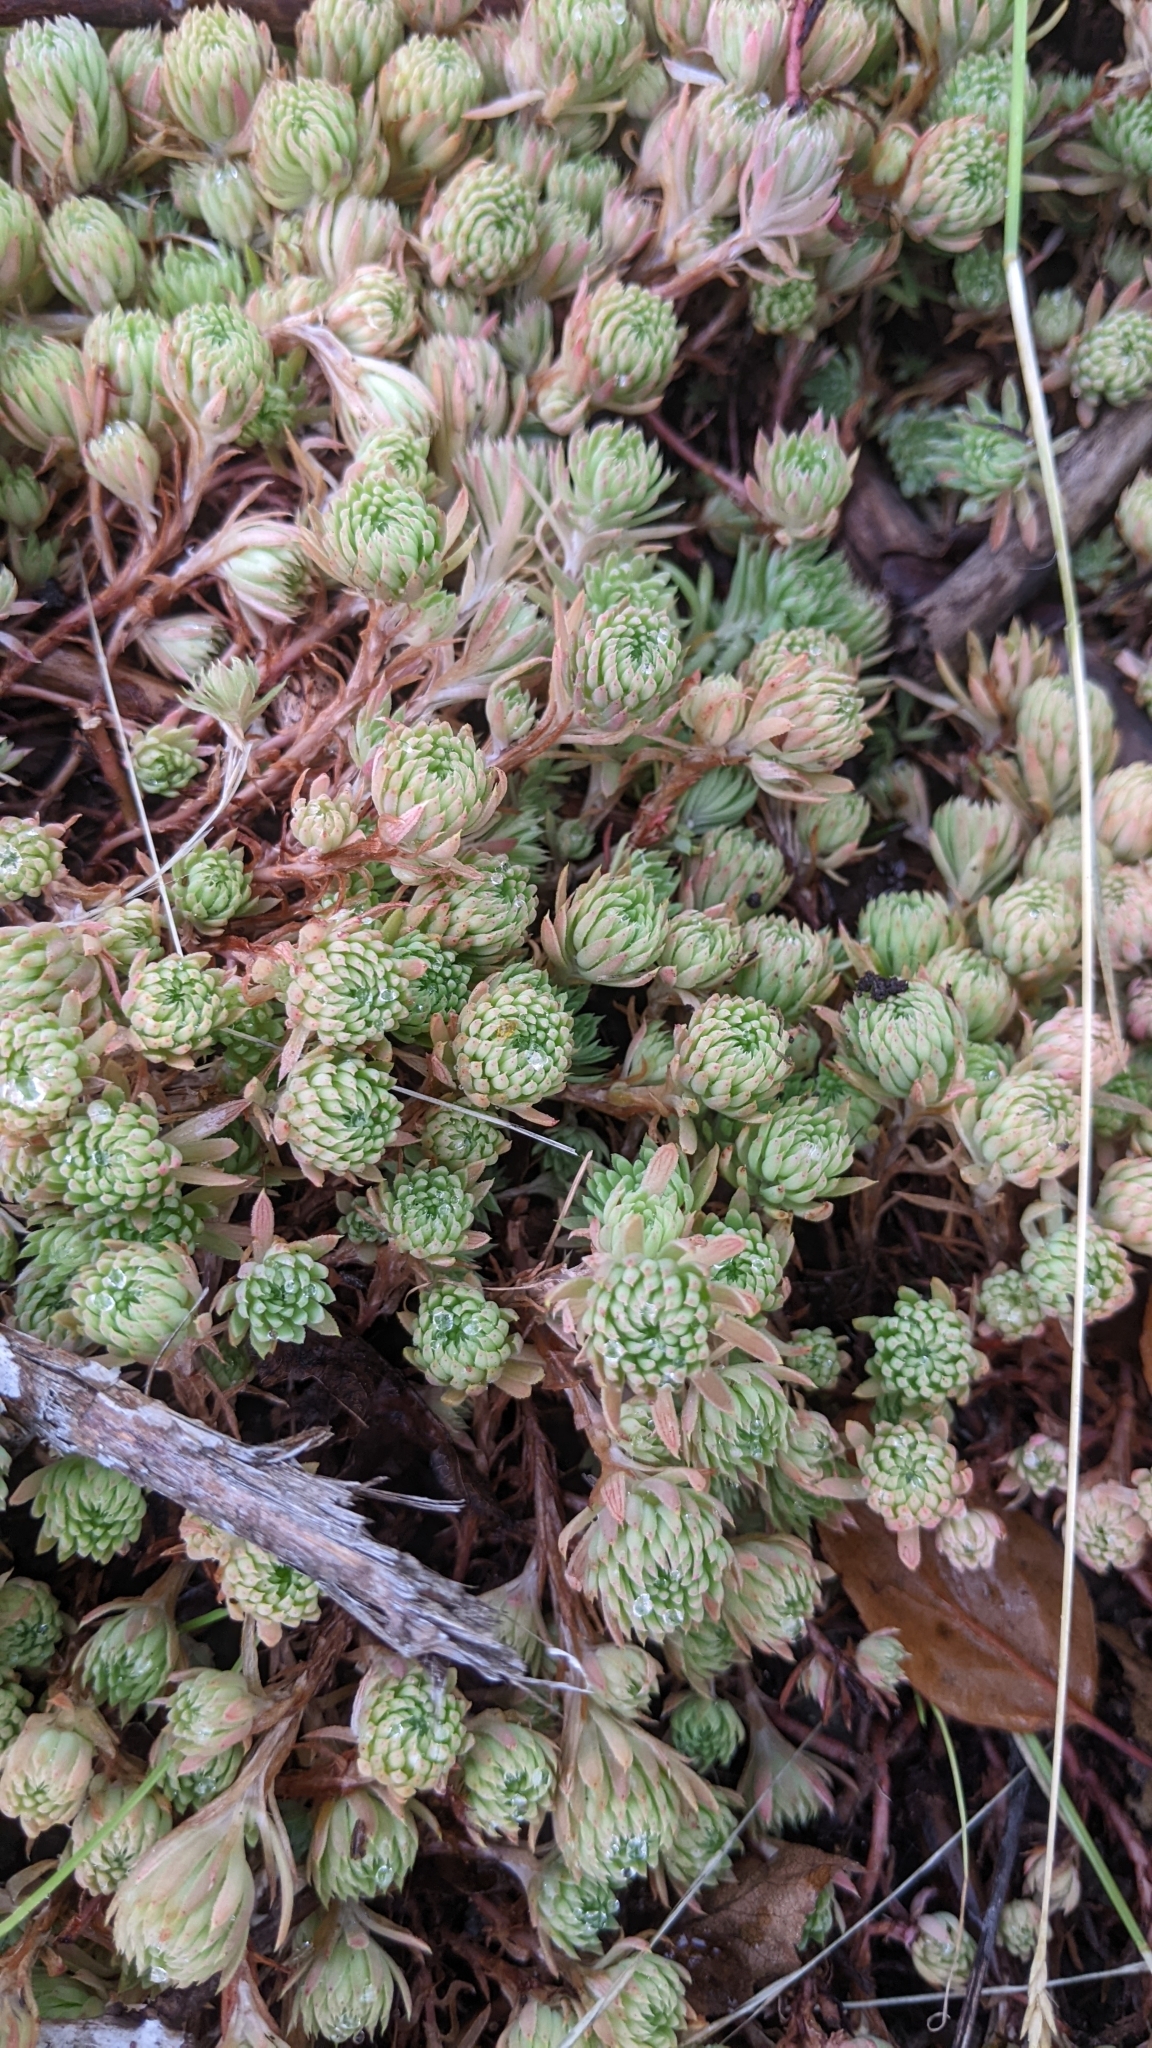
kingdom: Plantae
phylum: Tracheophyta
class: Magnoliopsida
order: Saxifragales
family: Crassulaceae
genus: Petrosedum
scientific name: Petrosedum forsterianum
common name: Forster's stonecrop
